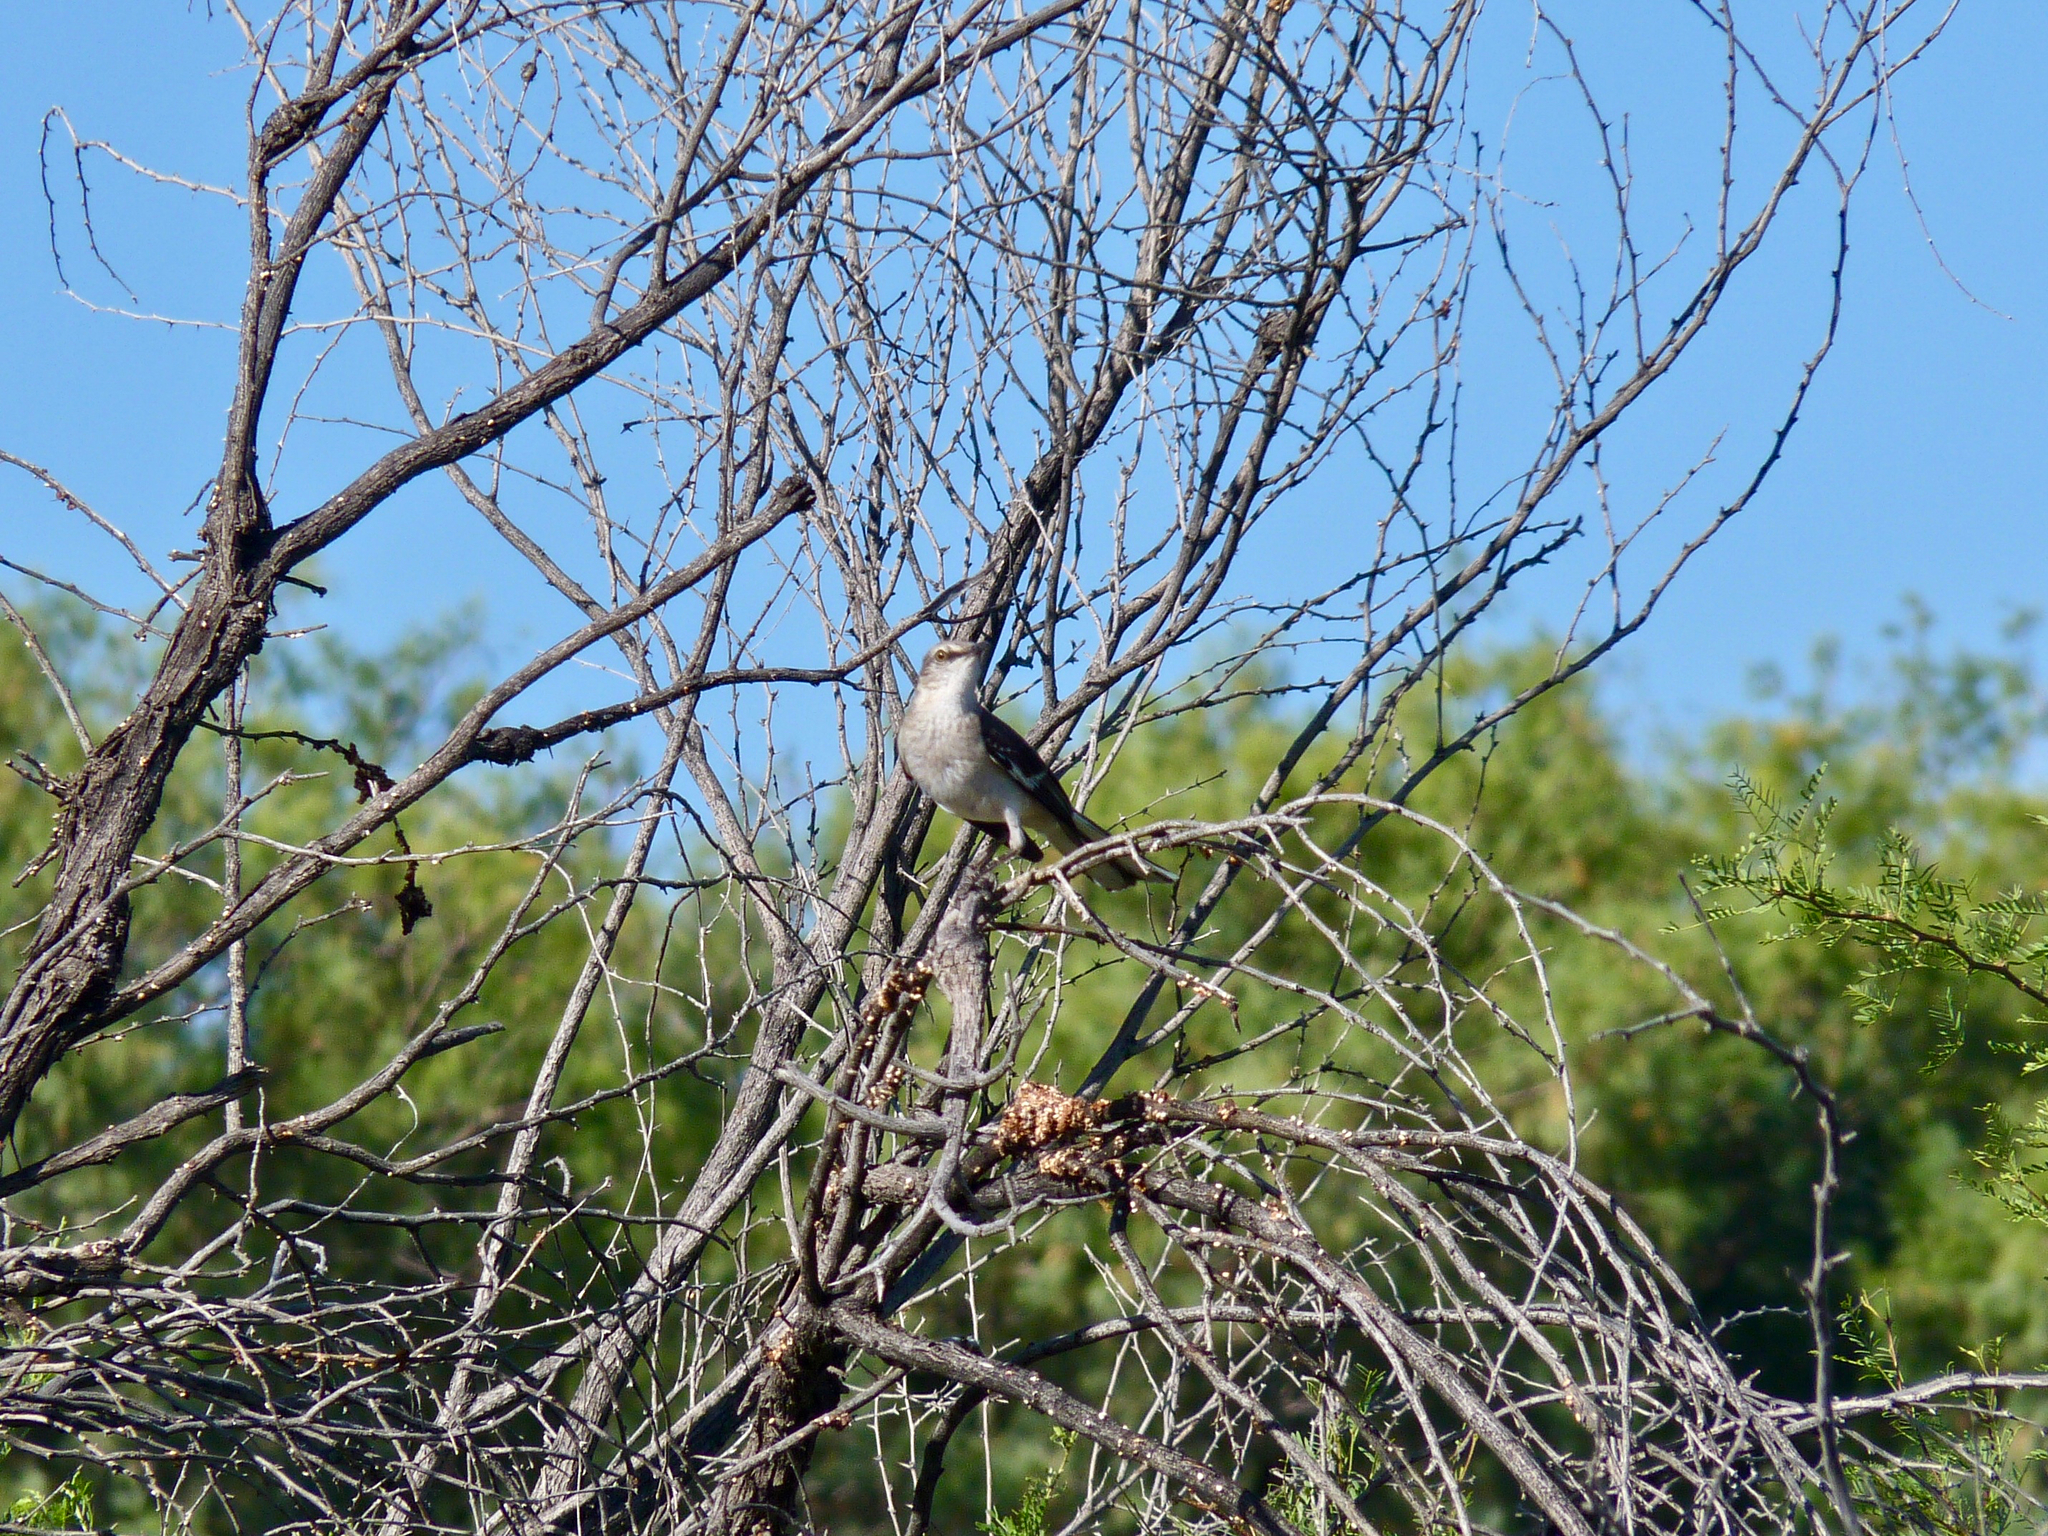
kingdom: Animalia
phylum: Chordata
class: Aves
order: Passeriformes
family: Mimidae
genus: Mimus
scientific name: Mimus polyglottos
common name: Northern mockingbird
